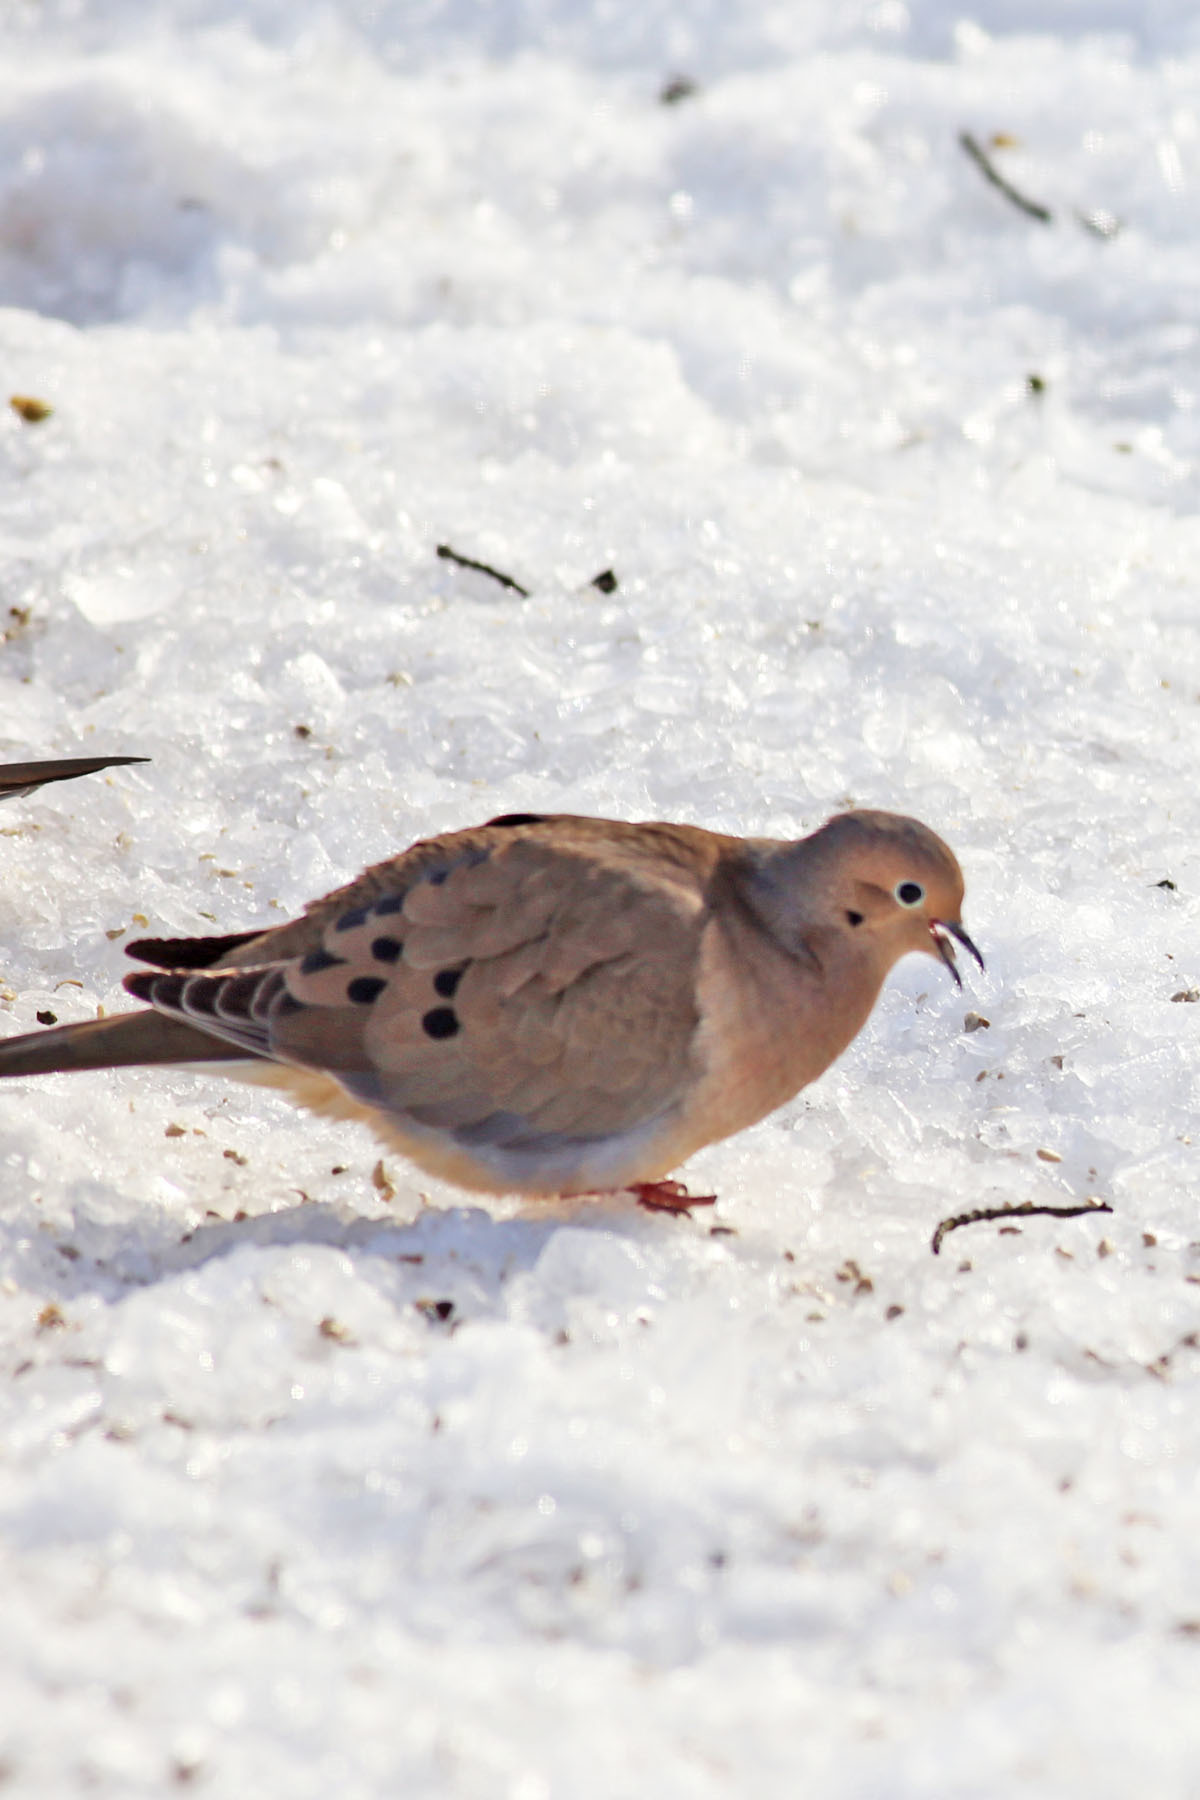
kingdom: Animalia
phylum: Chordata
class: Aves
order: Columbiformes
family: Columbidae
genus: Zenaida
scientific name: Zenaida macroura
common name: Mourning dove
